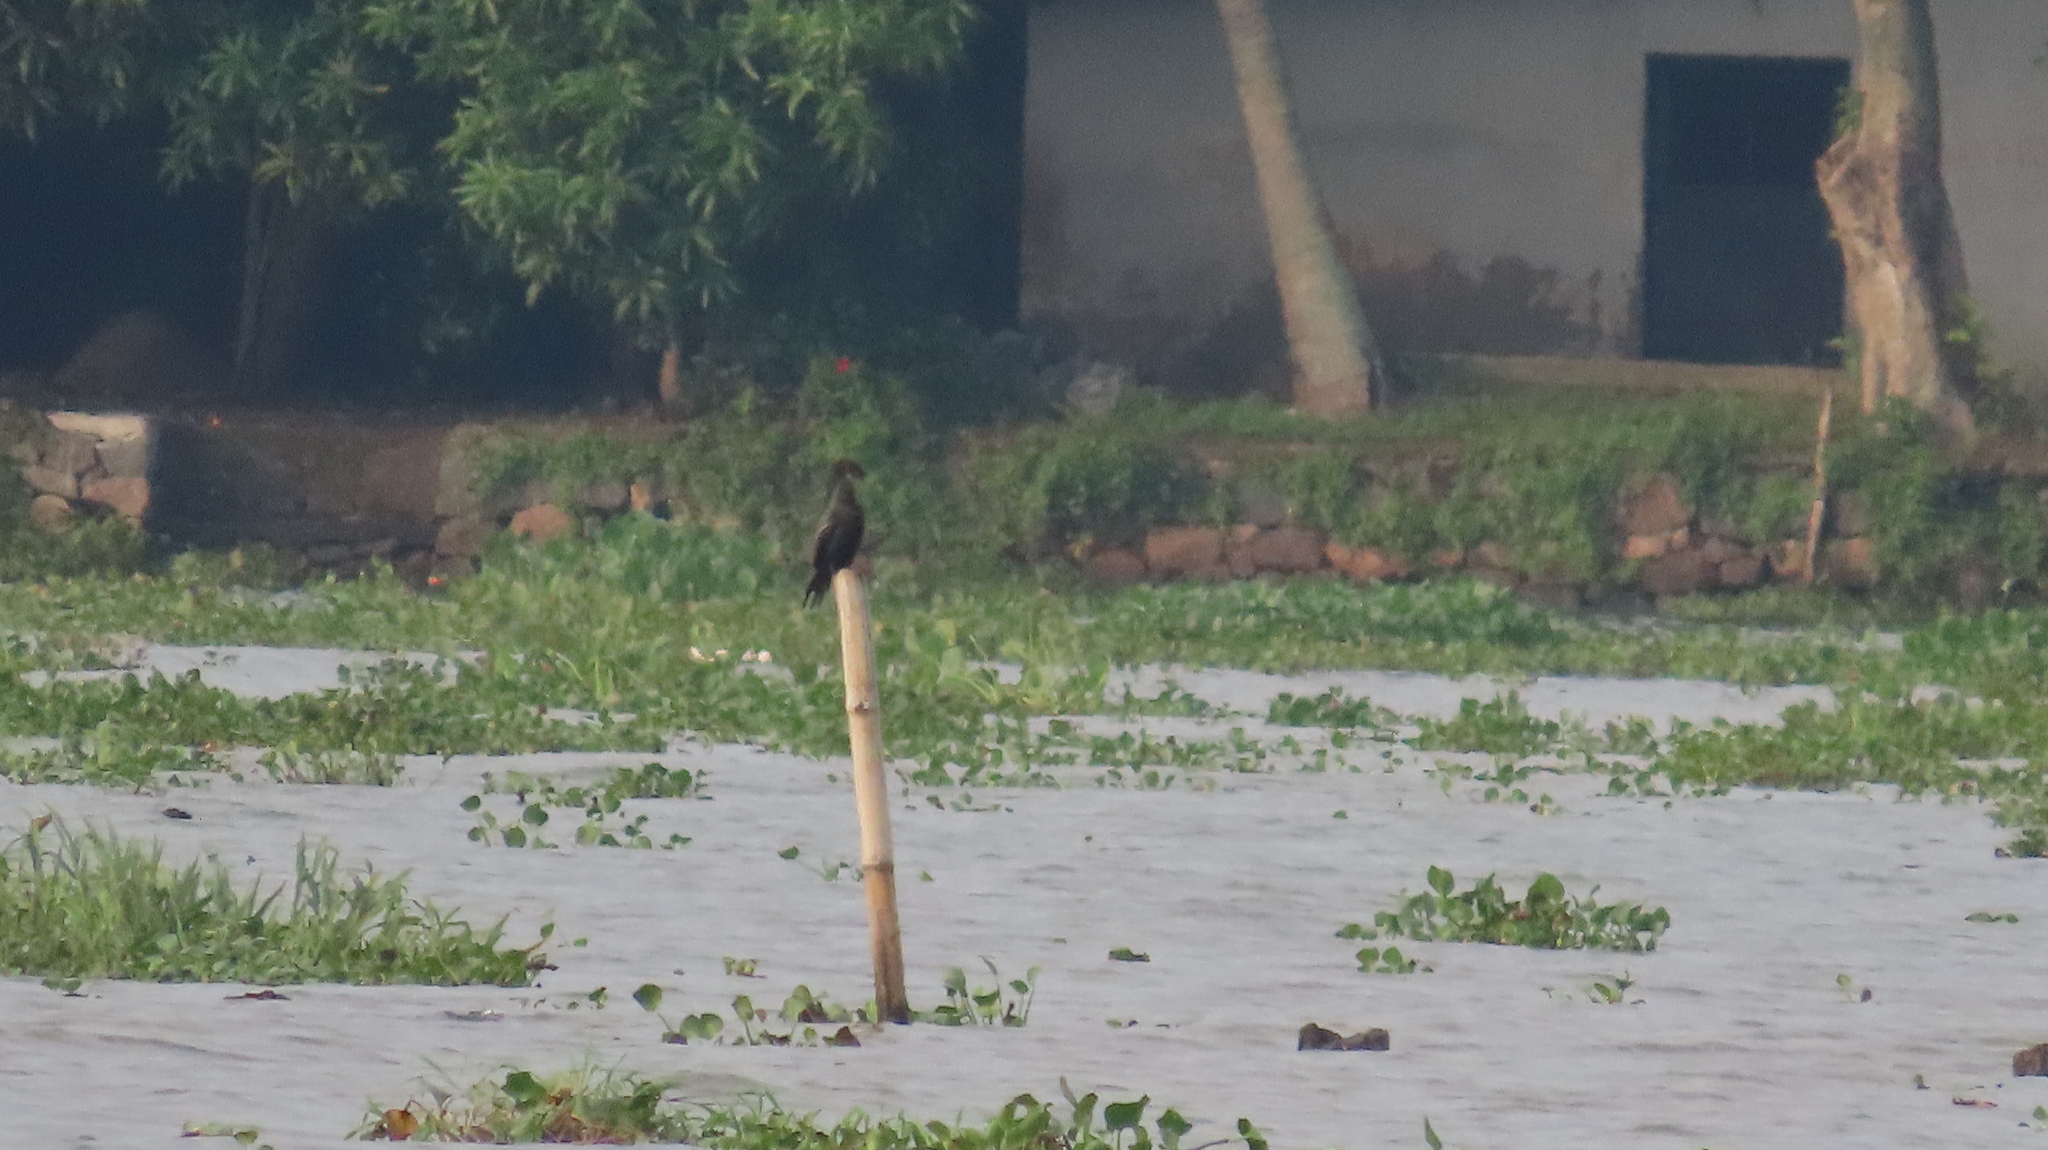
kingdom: Animalia
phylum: Chordata
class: Aves
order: Suliformes
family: Phalacrocoracidae
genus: Microcarbo
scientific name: Microcarbo niger
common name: Little cormorant
